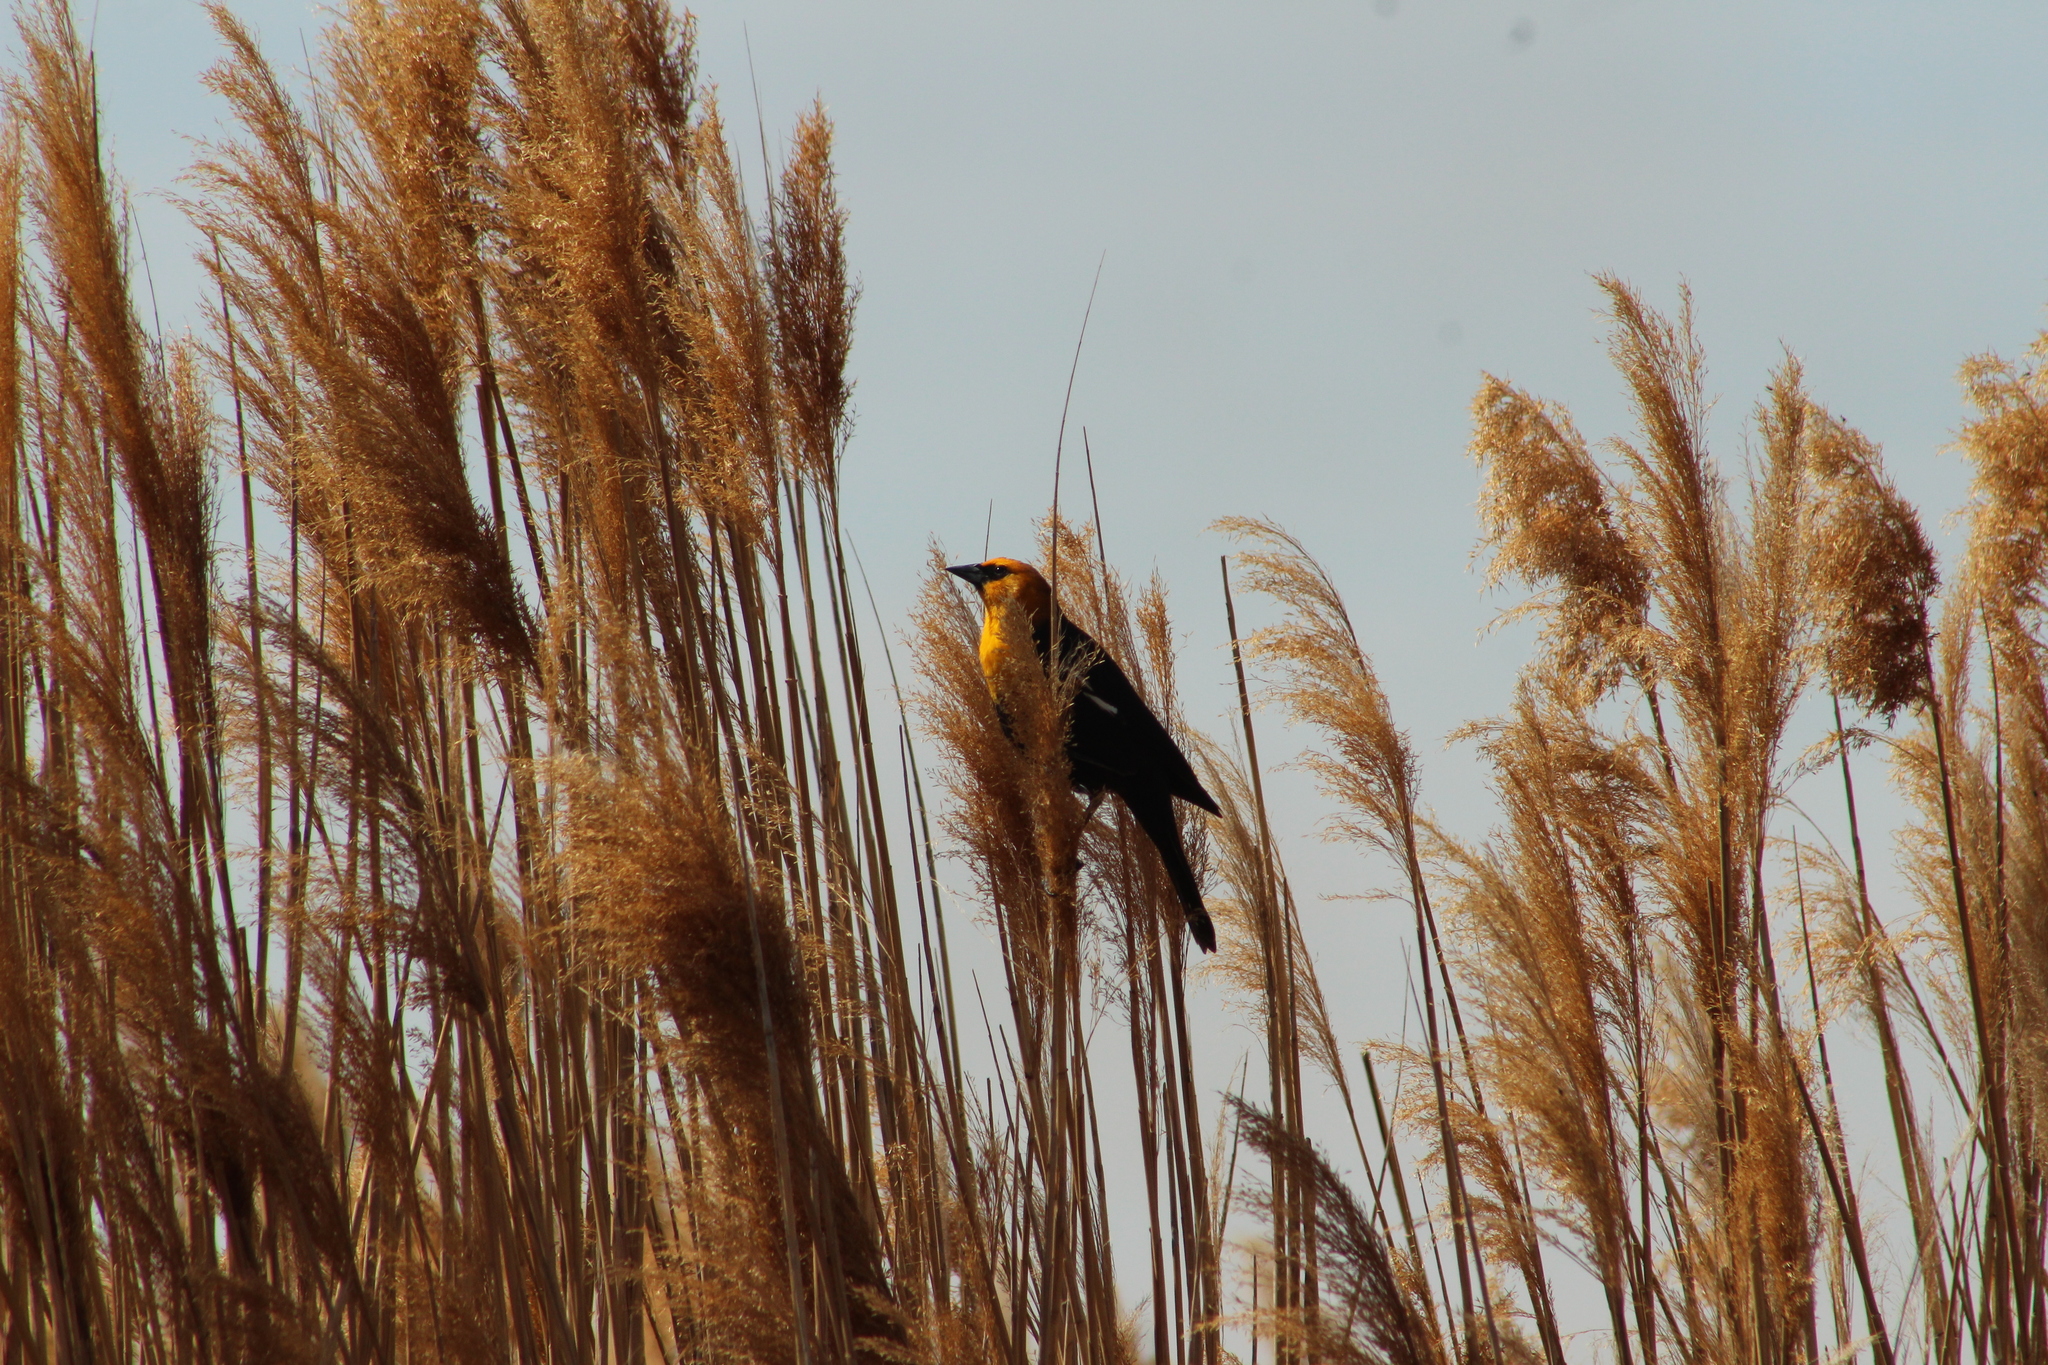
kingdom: Animalia
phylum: Chordata
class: Aves
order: Passeriformes
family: Icteridae
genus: Xanthocephalus
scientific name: Xanthocephalus xanthocephalus
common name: Yellow-headed blackbird
